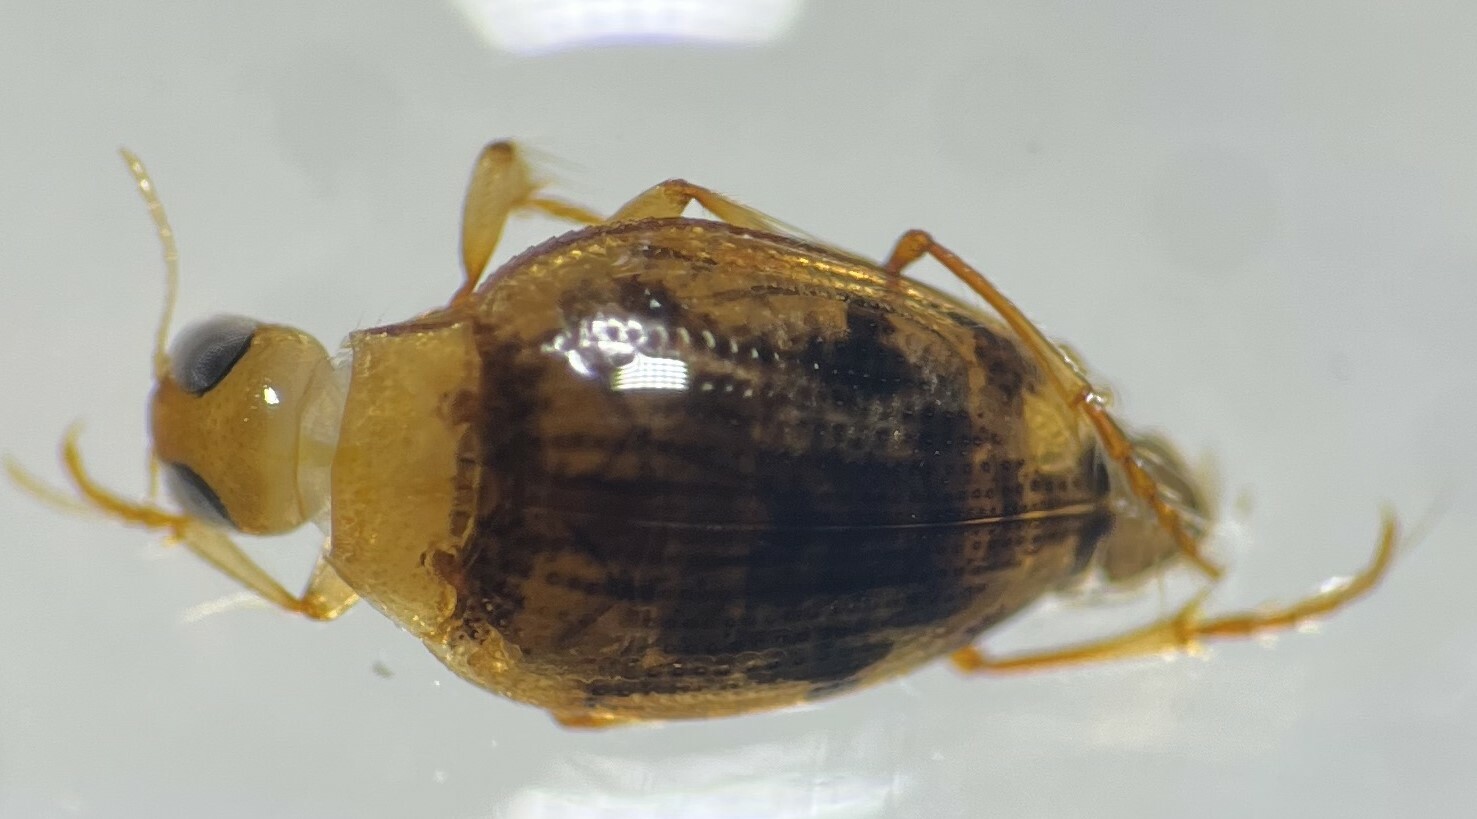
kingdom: Animalia
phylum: Arthropoda
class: Insecta
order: Coleoptera
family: Haliplidae
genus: Haliplus
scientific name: Haliplus lewsii
